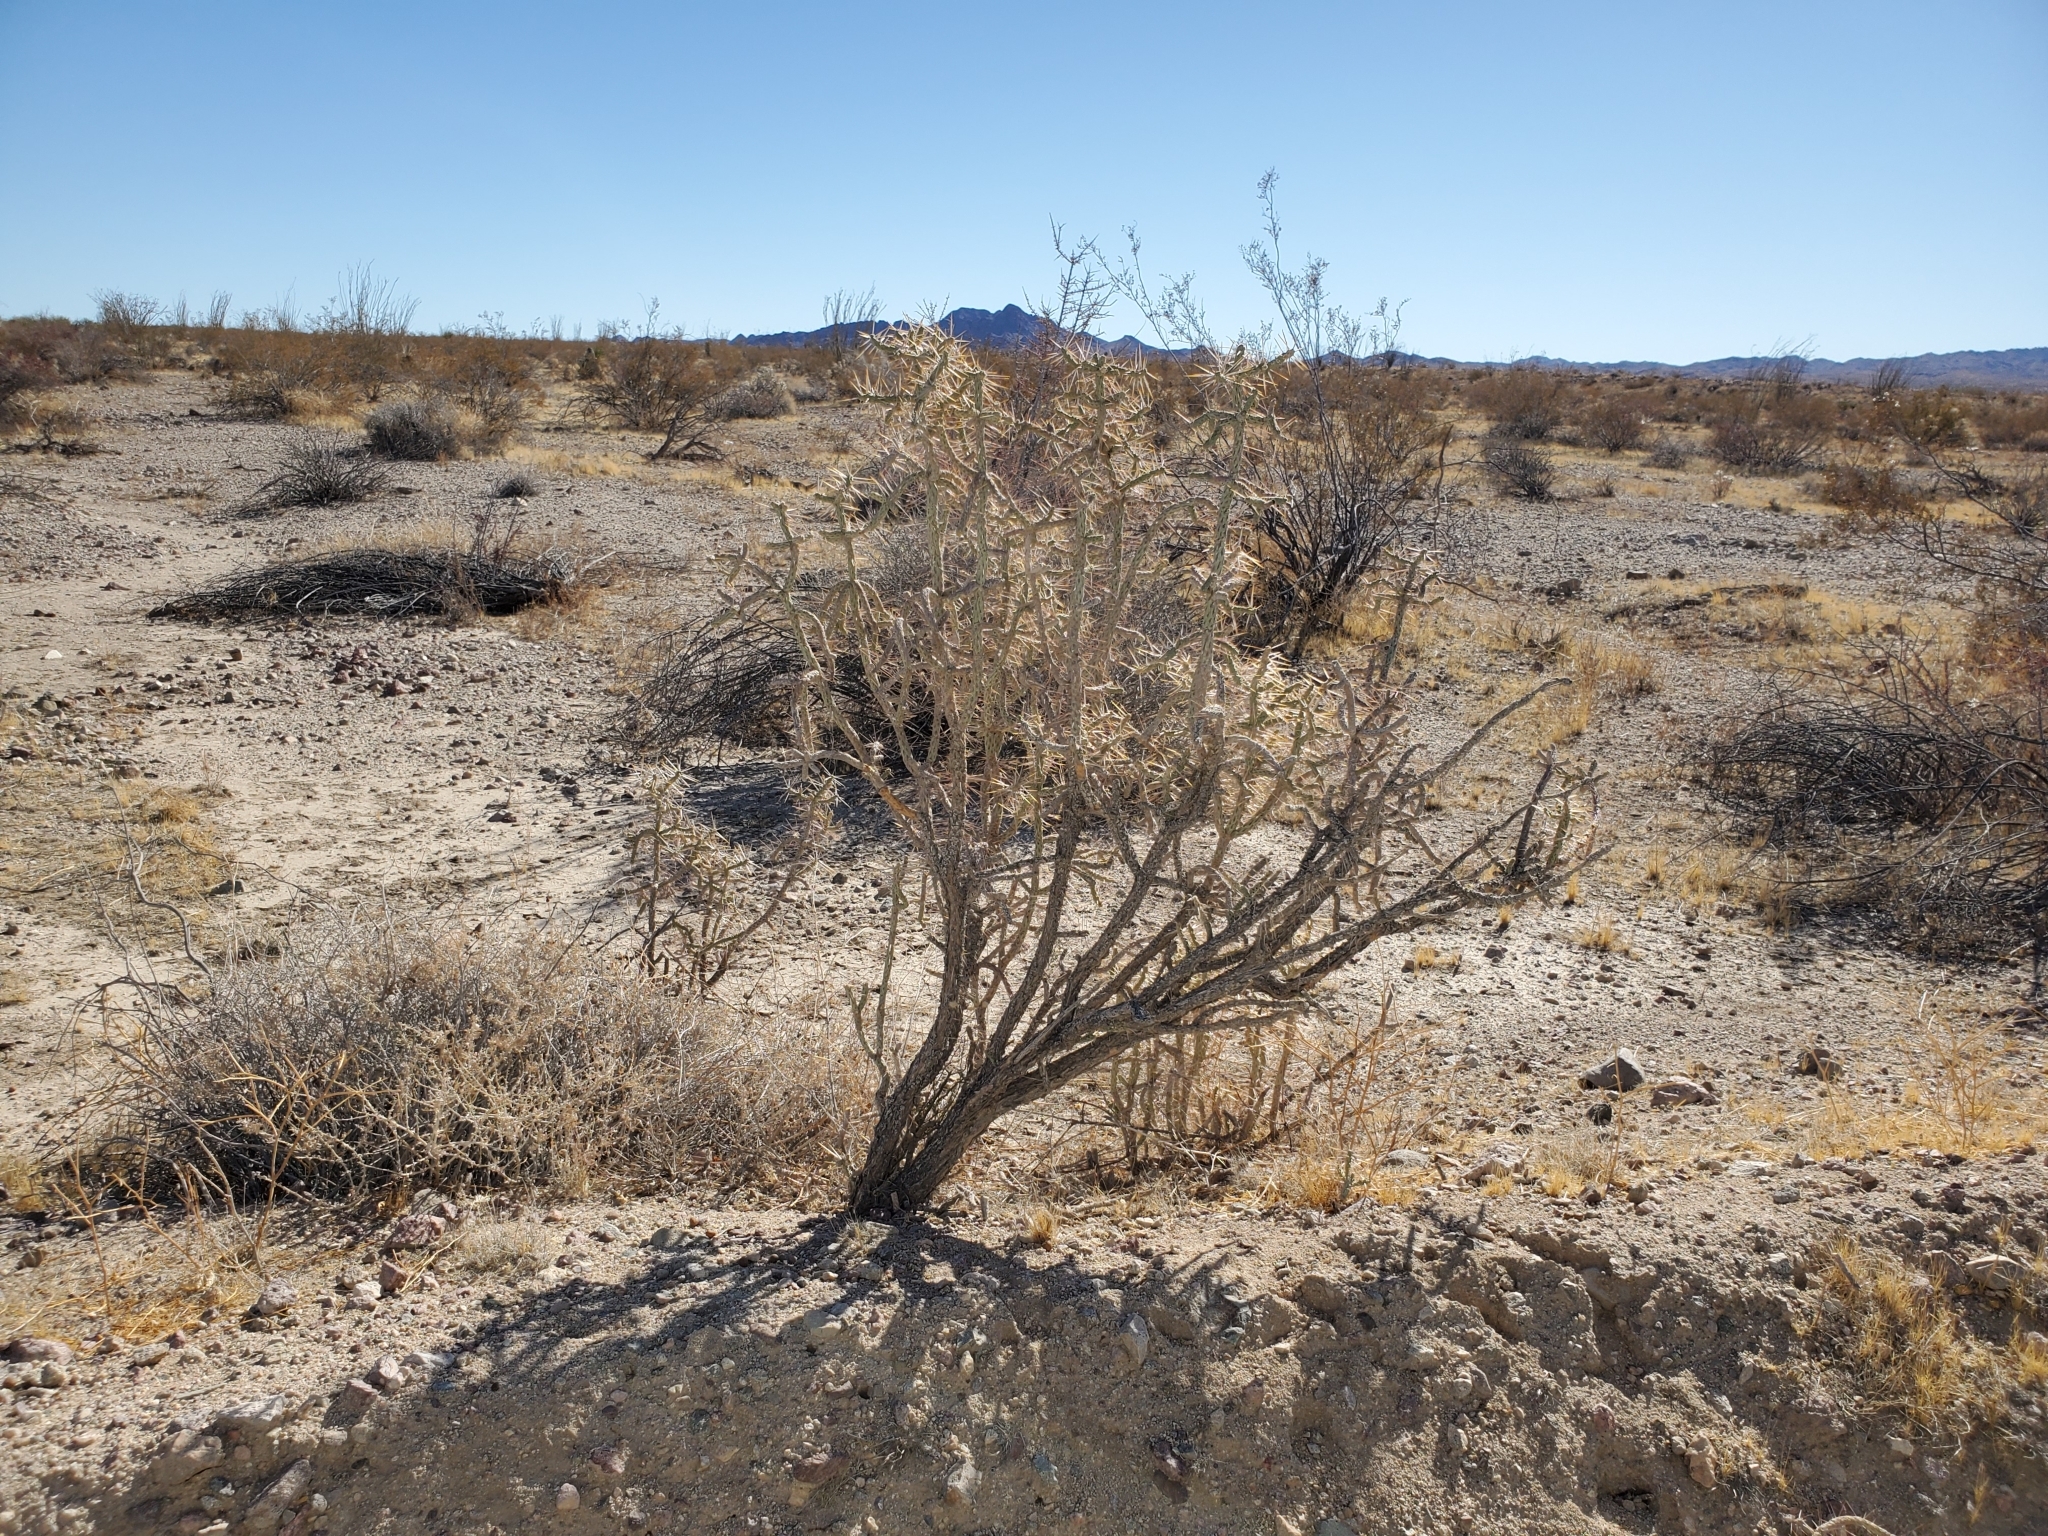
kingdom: Plantae
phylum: Tracheophyta
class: Magnoliopsida
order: Caryophyllales
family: Cactaceae
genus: Cylindropuntia
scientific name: Cylindropuntia ramosissima
